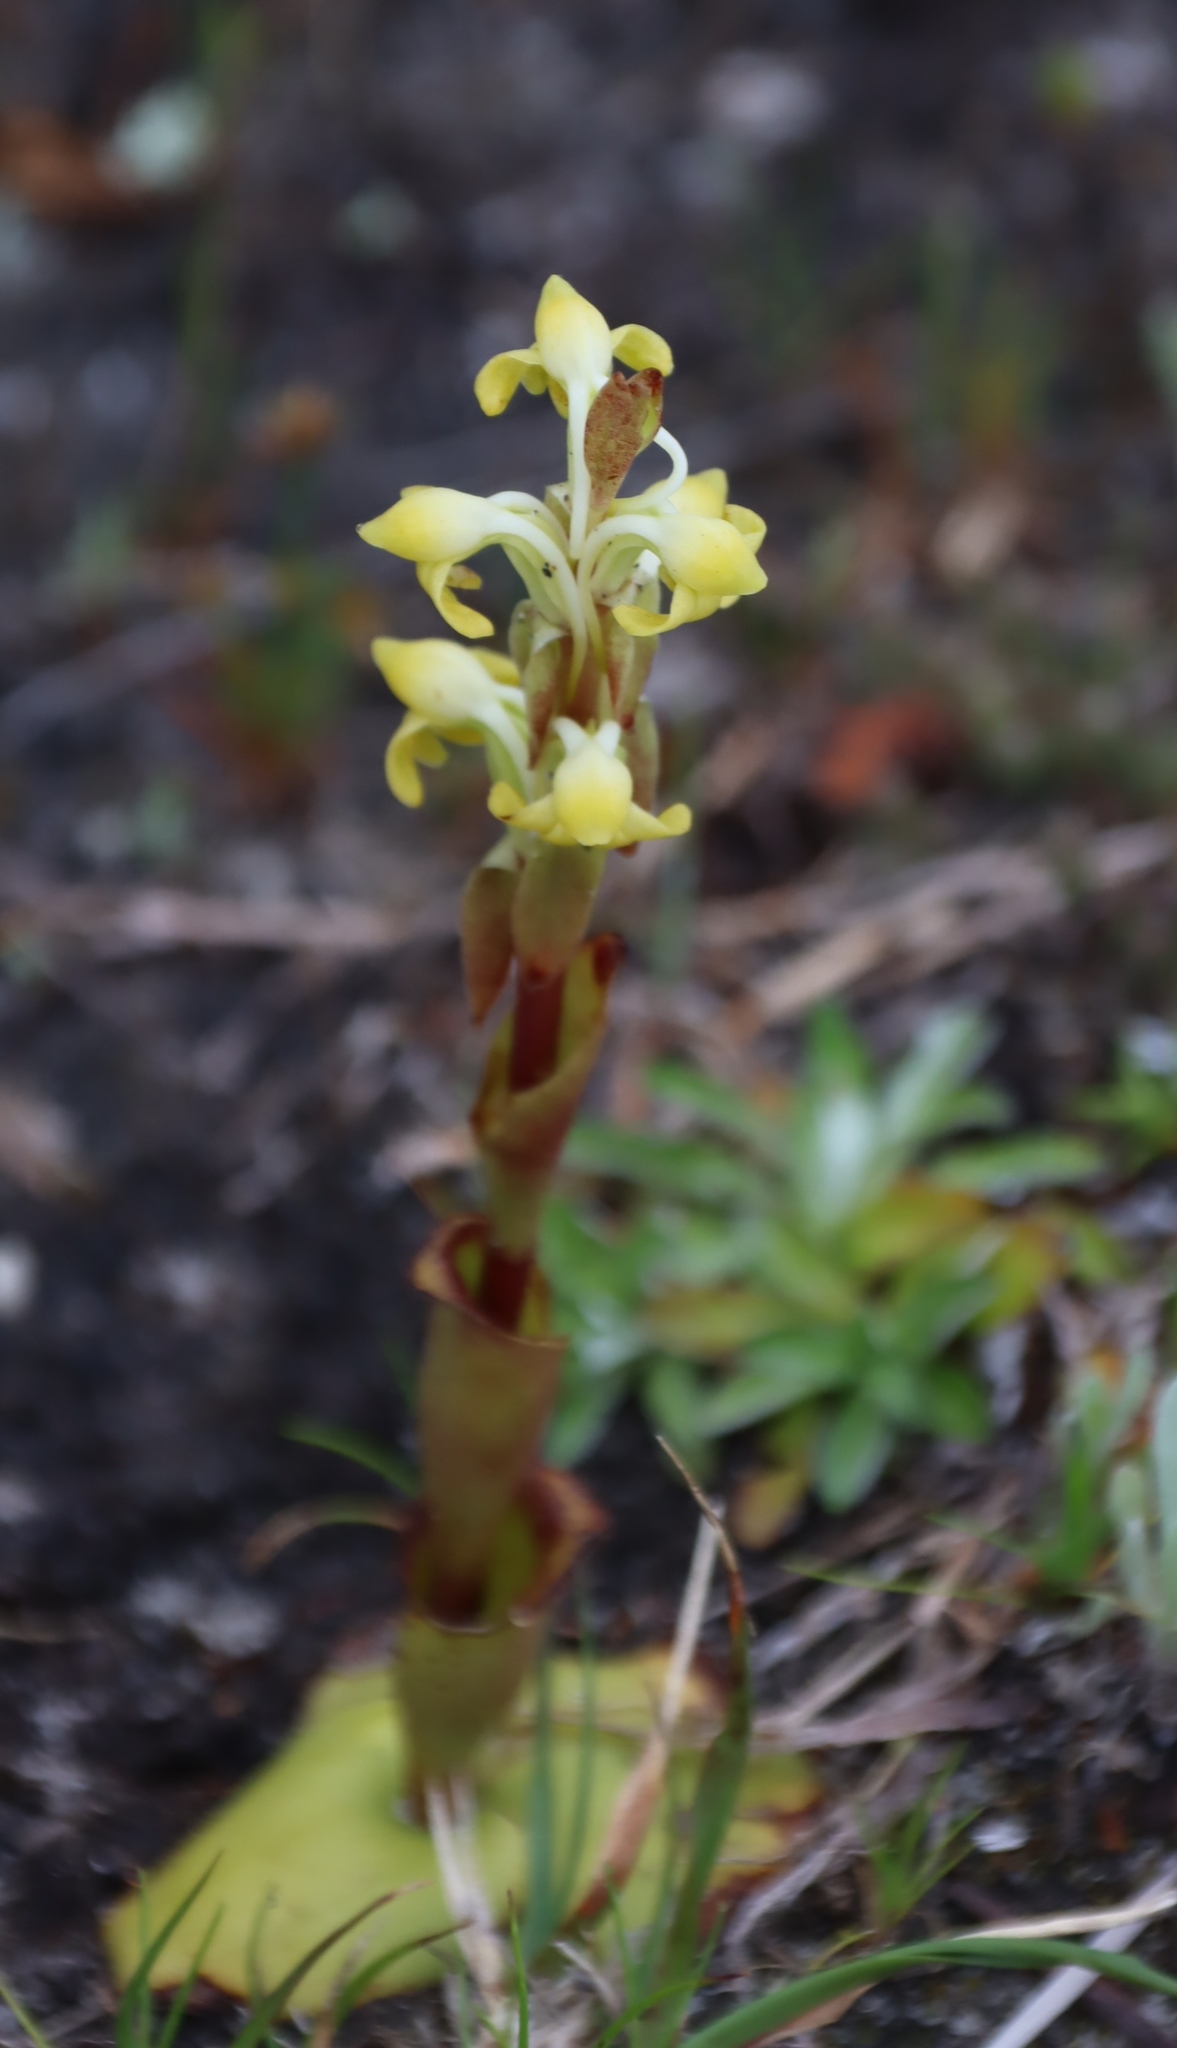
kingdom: Plantae
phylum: Tracheophyta
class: Liliopsida
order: Asparagales
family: Orchidaceae
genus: Satyrium
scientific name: Satyrium bicorne
